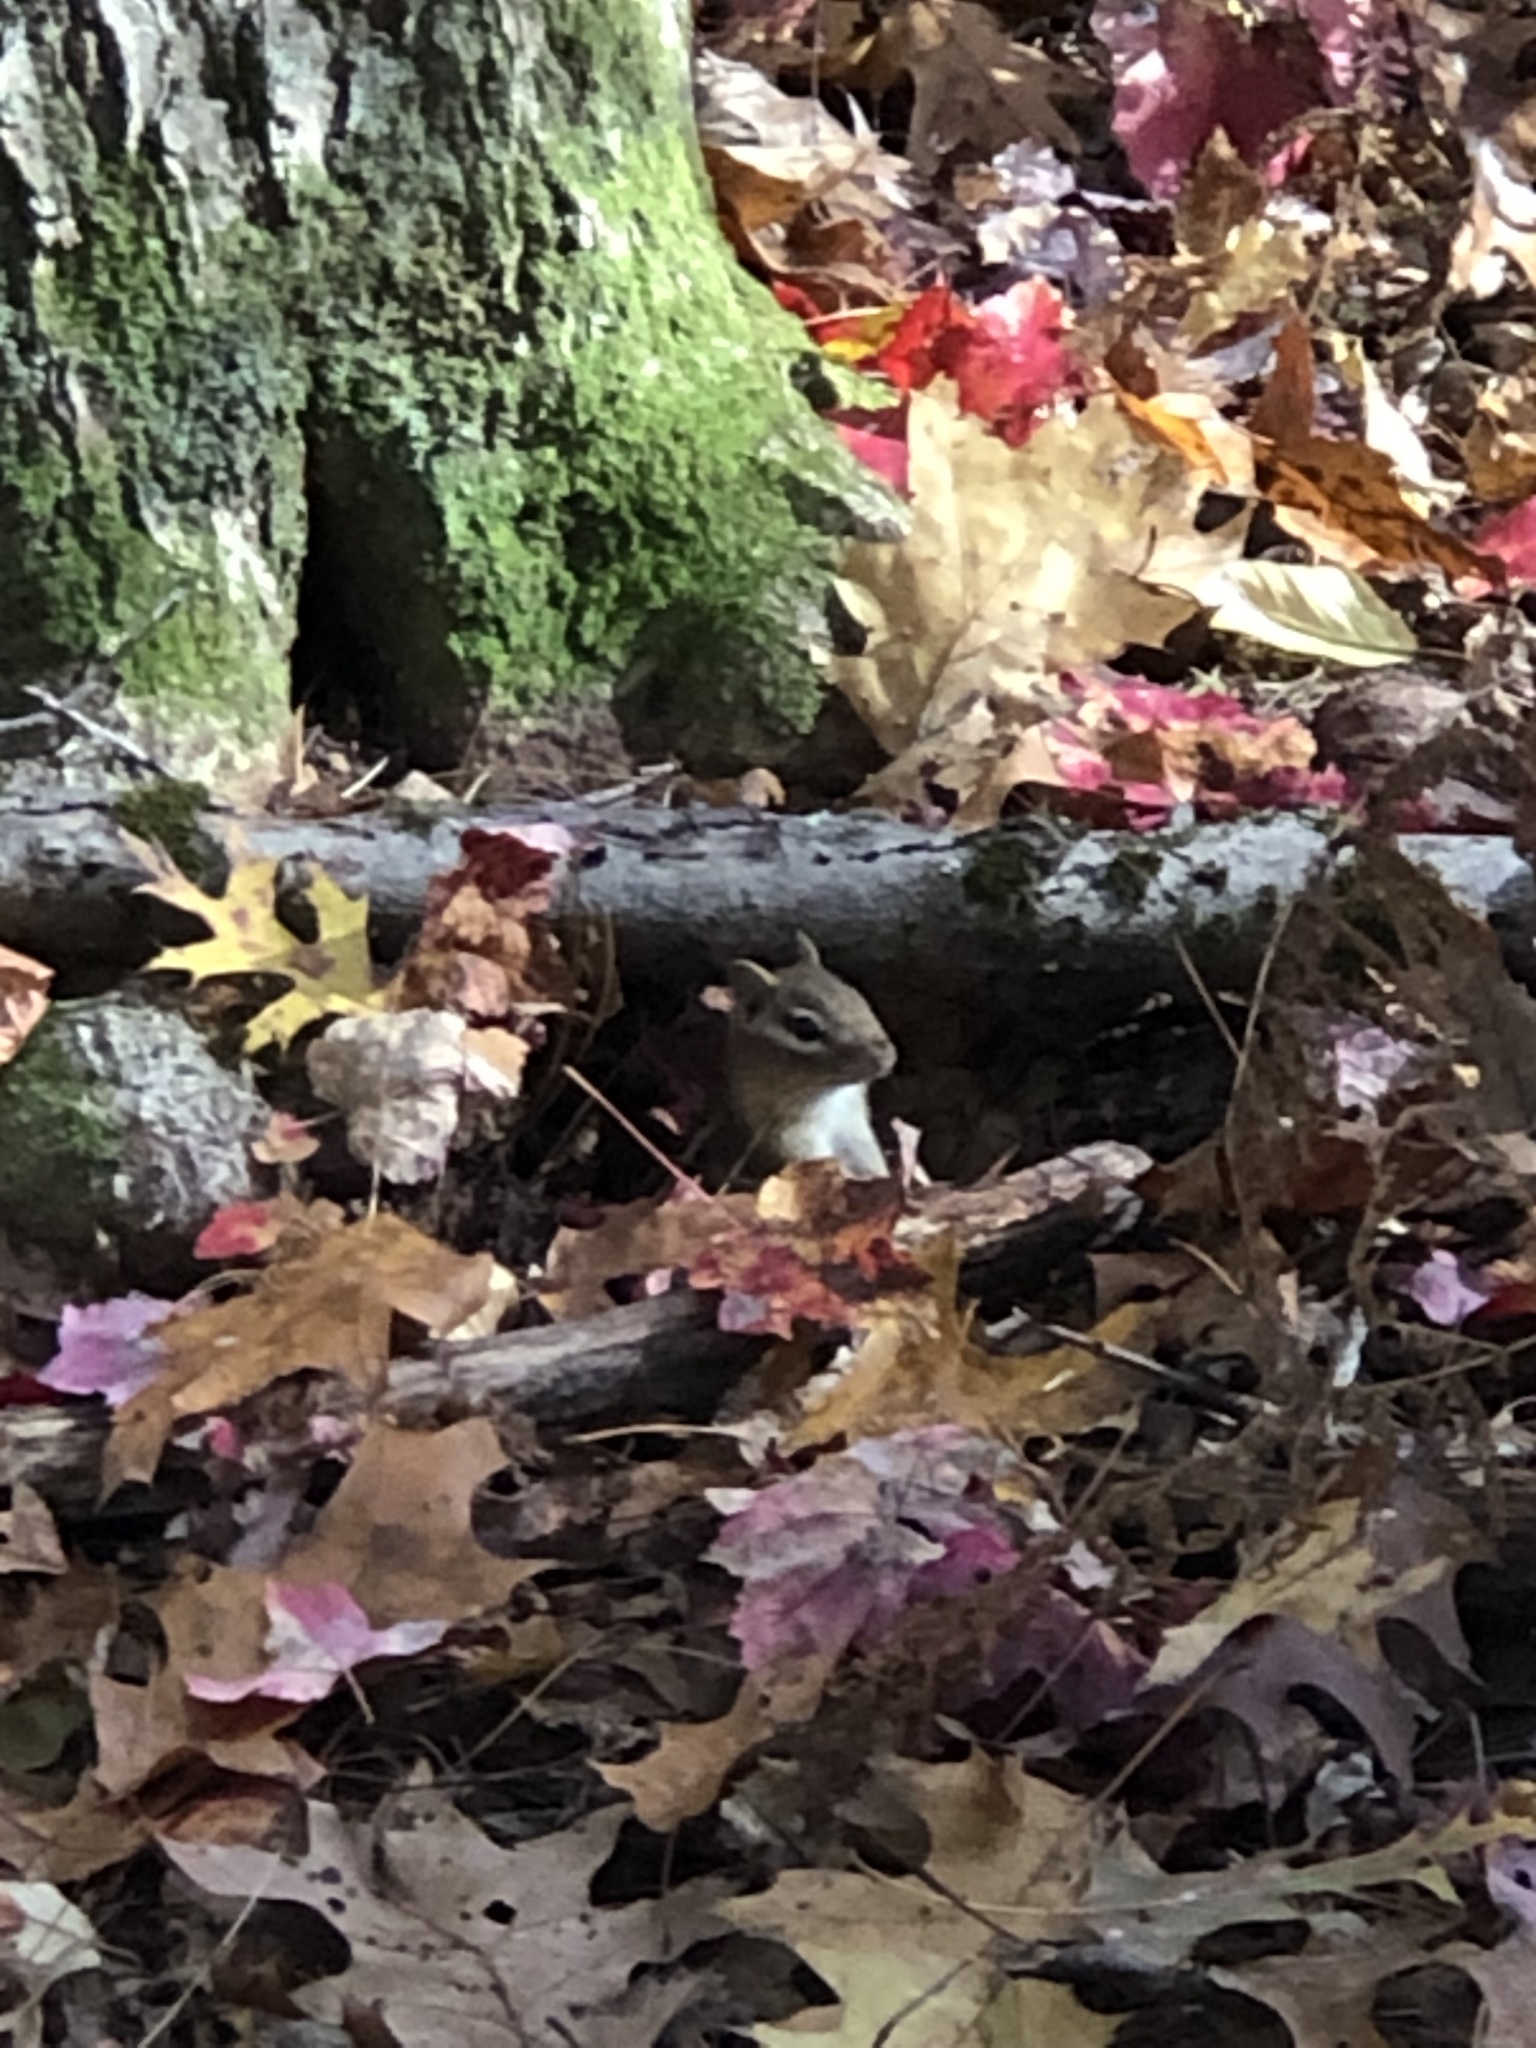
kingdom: Animalia
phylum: Chordata
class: Mammalia
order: Rodentia
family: Sciuridae
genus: Tamias
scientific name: Tamias striatus
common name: Eastern chipmunk
